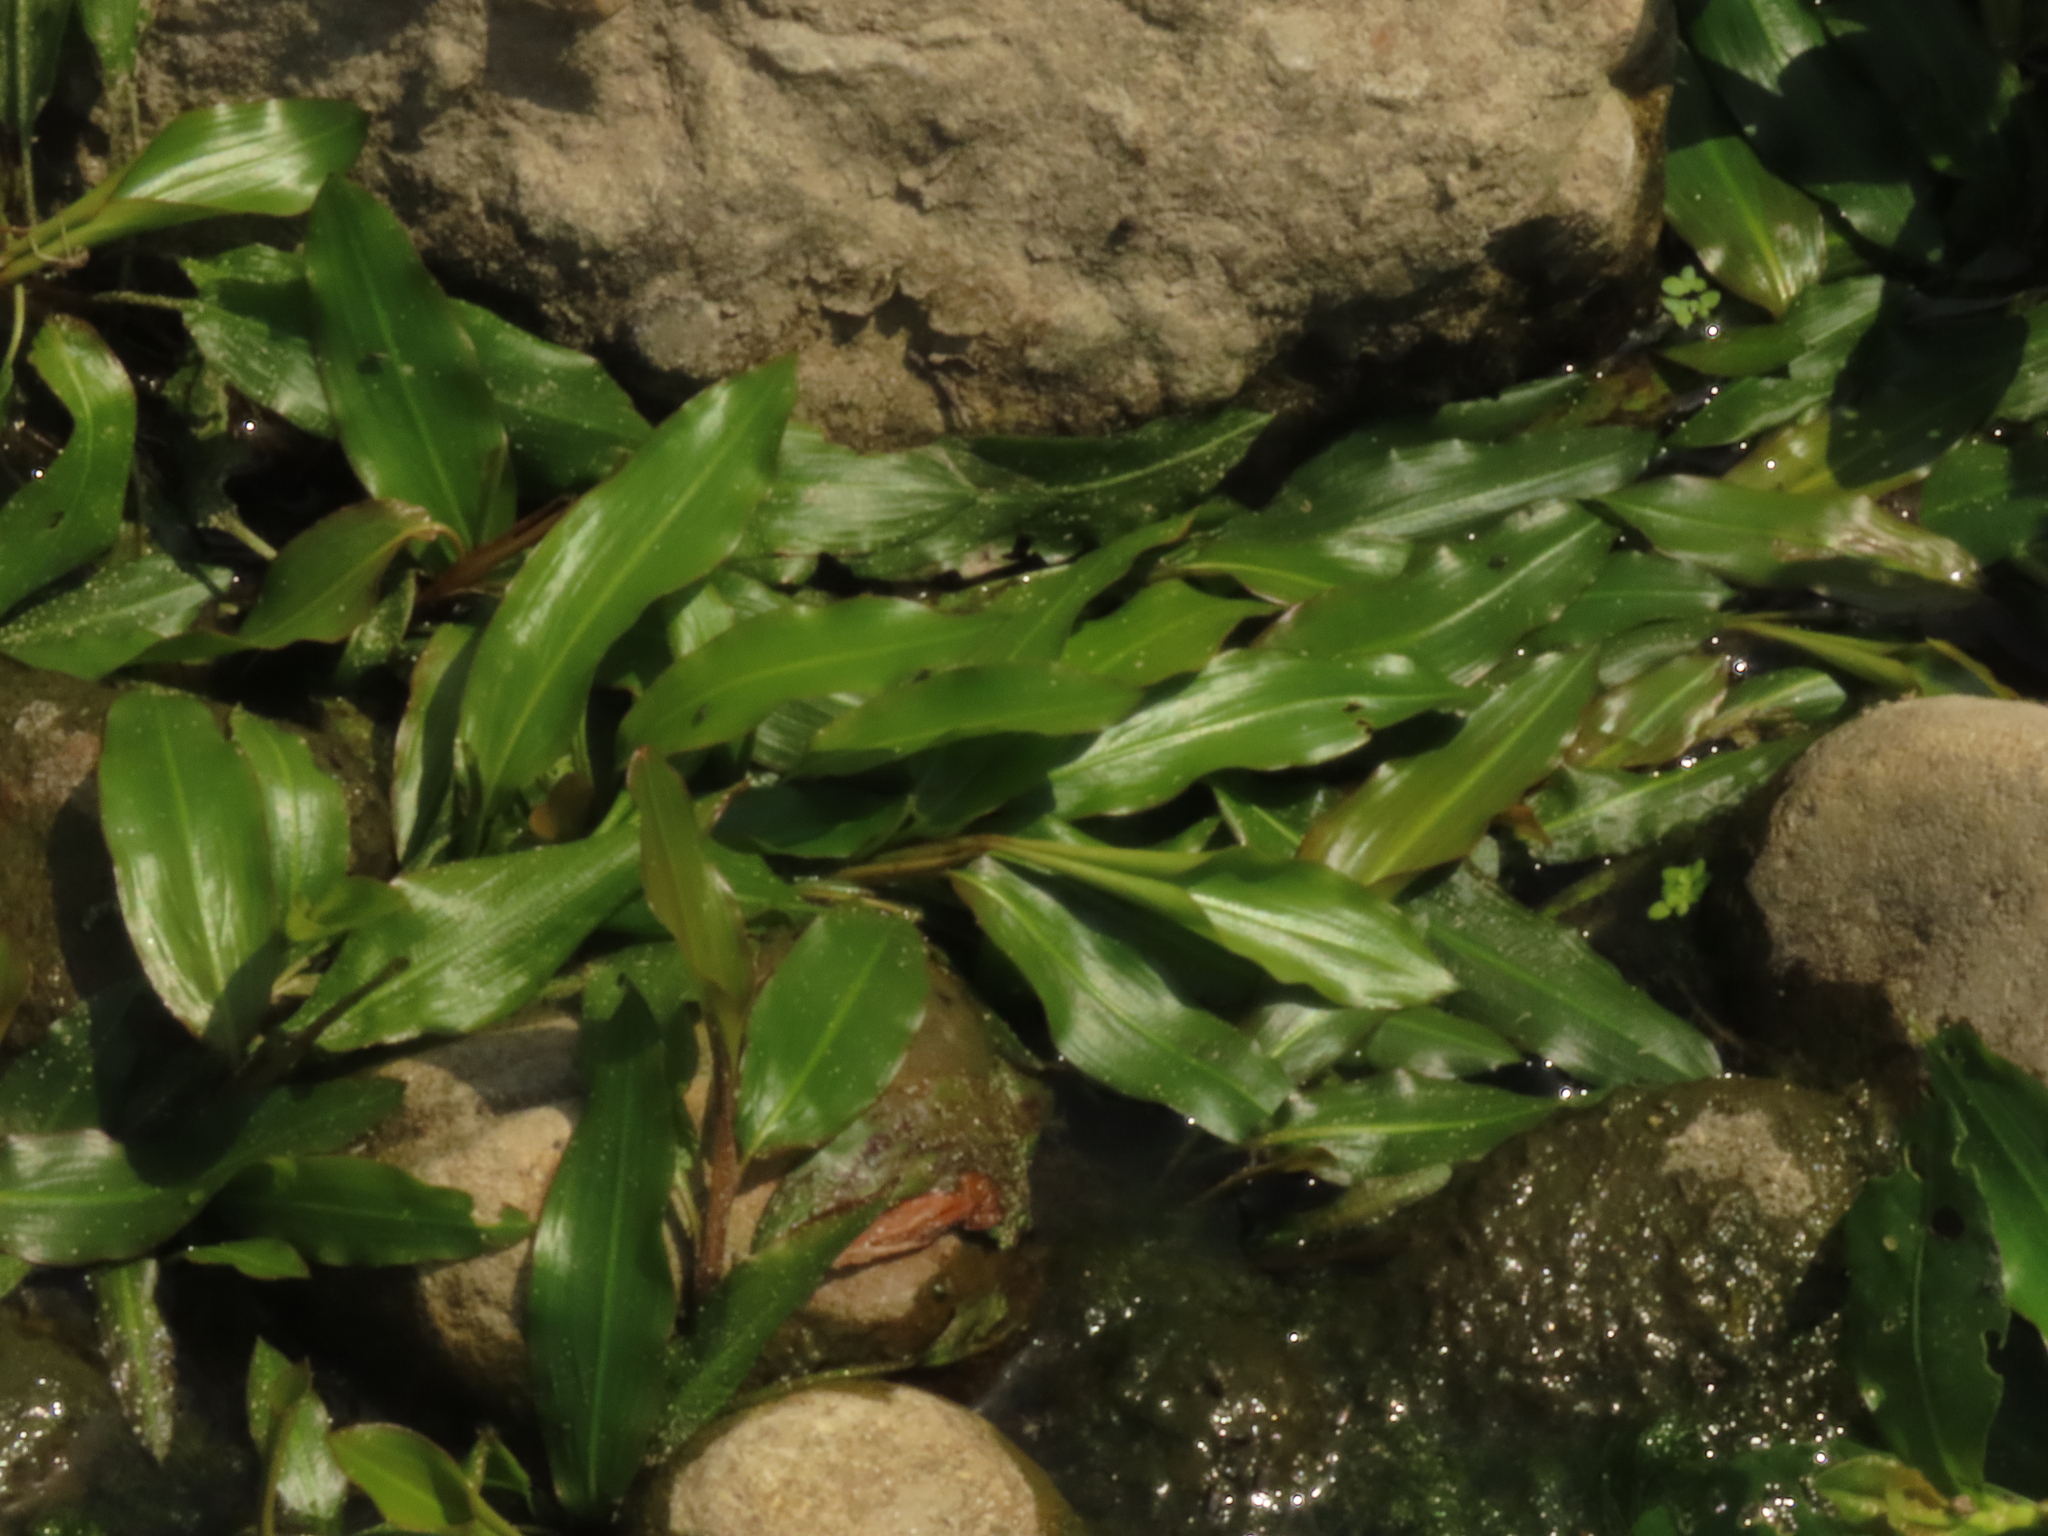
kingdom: Plantae
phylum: Tracheophyta
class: Liliopsida
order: Alismatales
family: Potamogetonaceae
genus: Potamogeton
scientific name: Potamogeton wrightii
